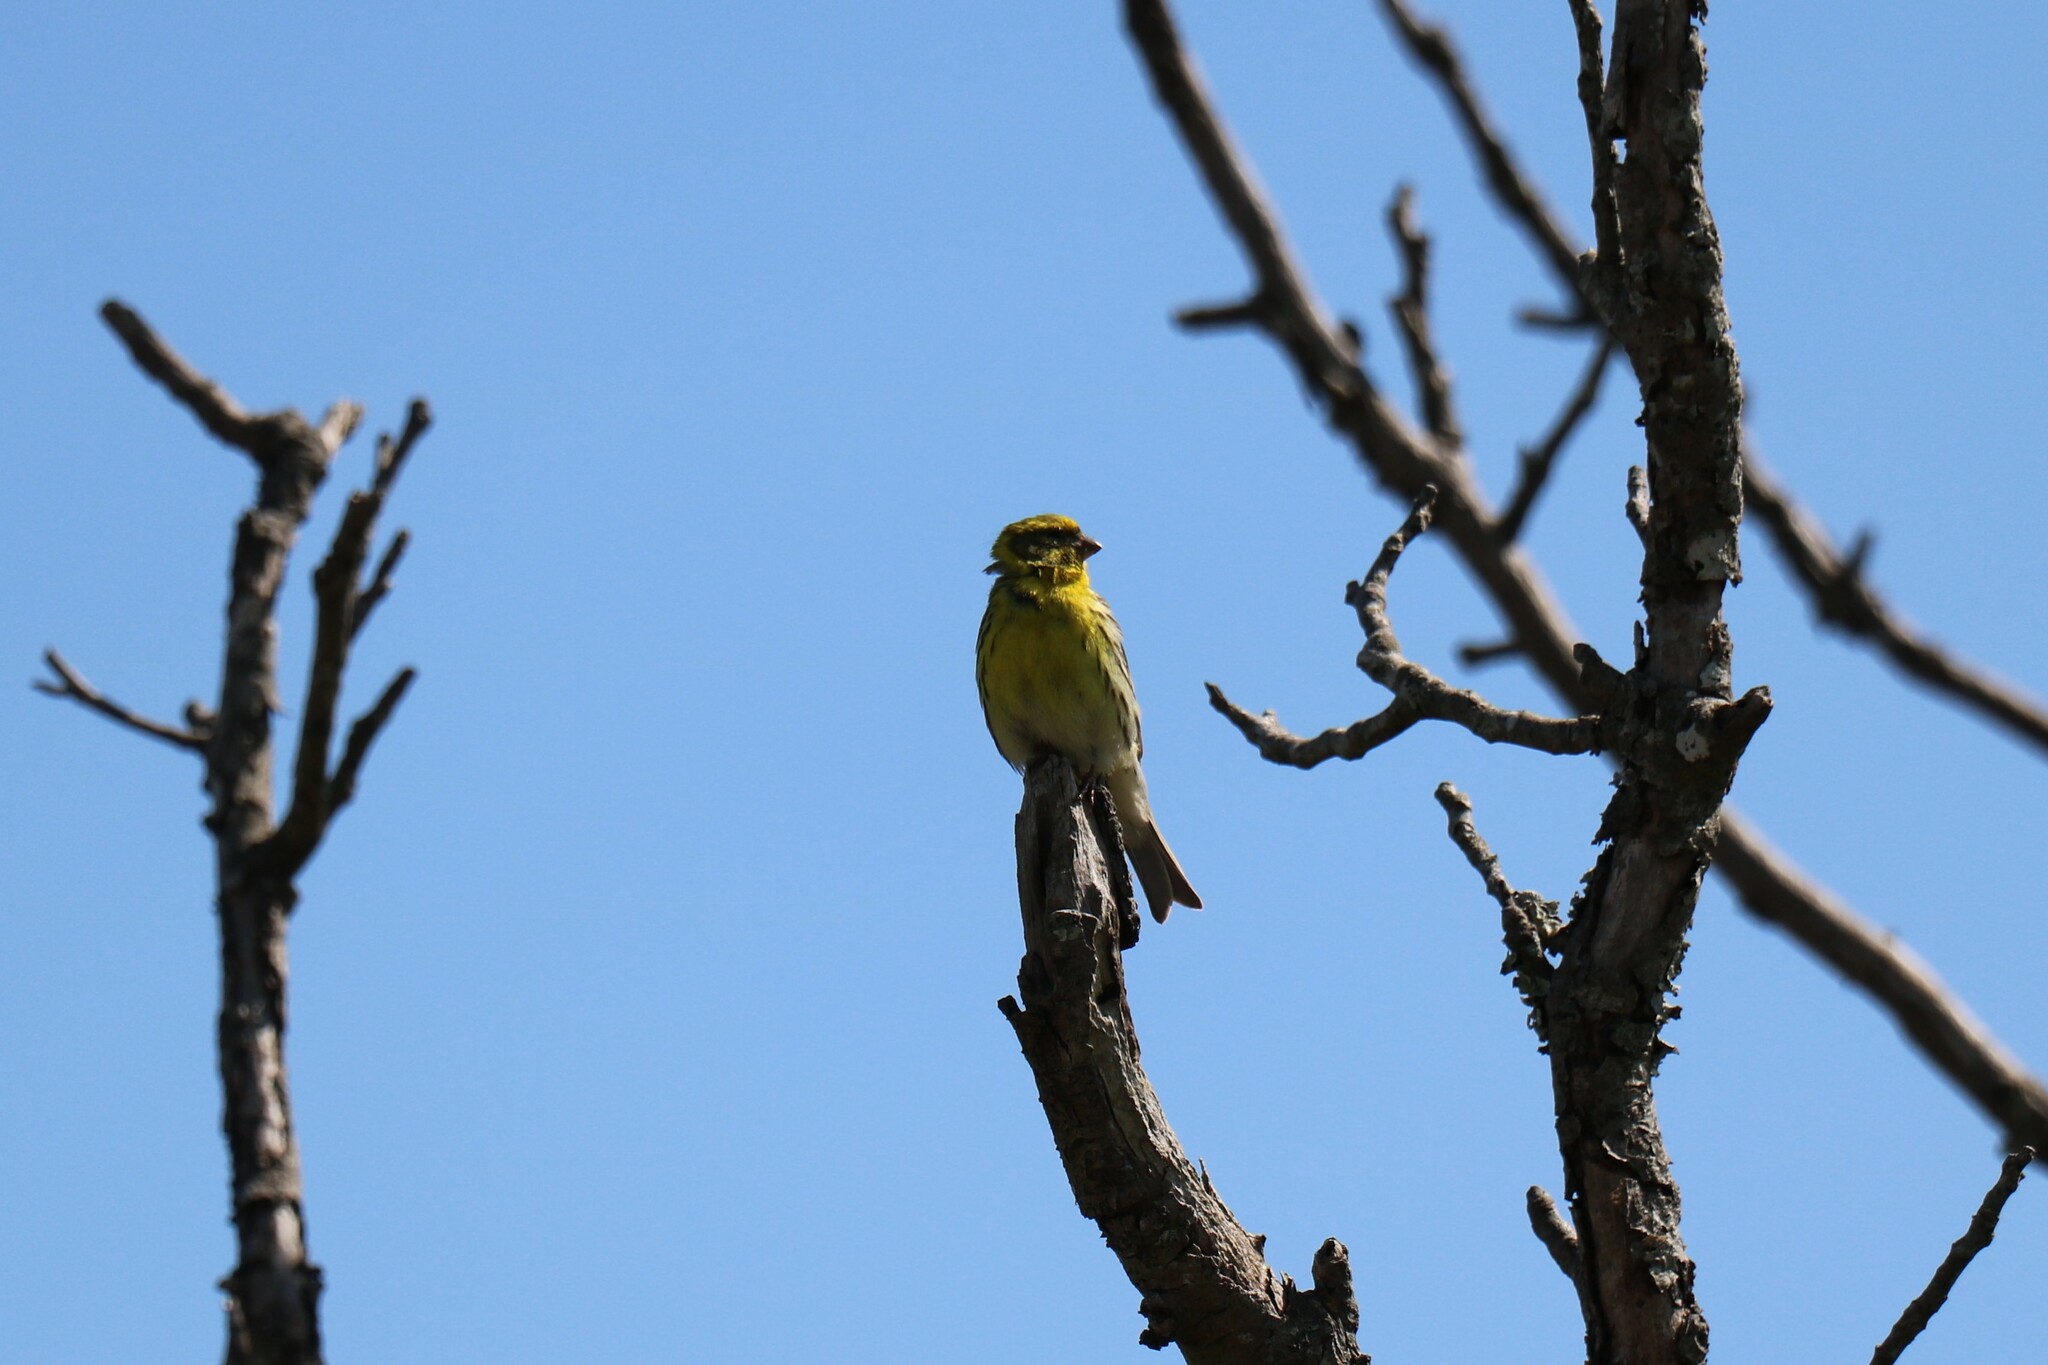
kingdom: Animalia
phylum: Chordata
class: Aves
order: Passeriformes
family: Fringillidae
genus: Serinus
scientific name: Serinus serinus
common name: European serin
